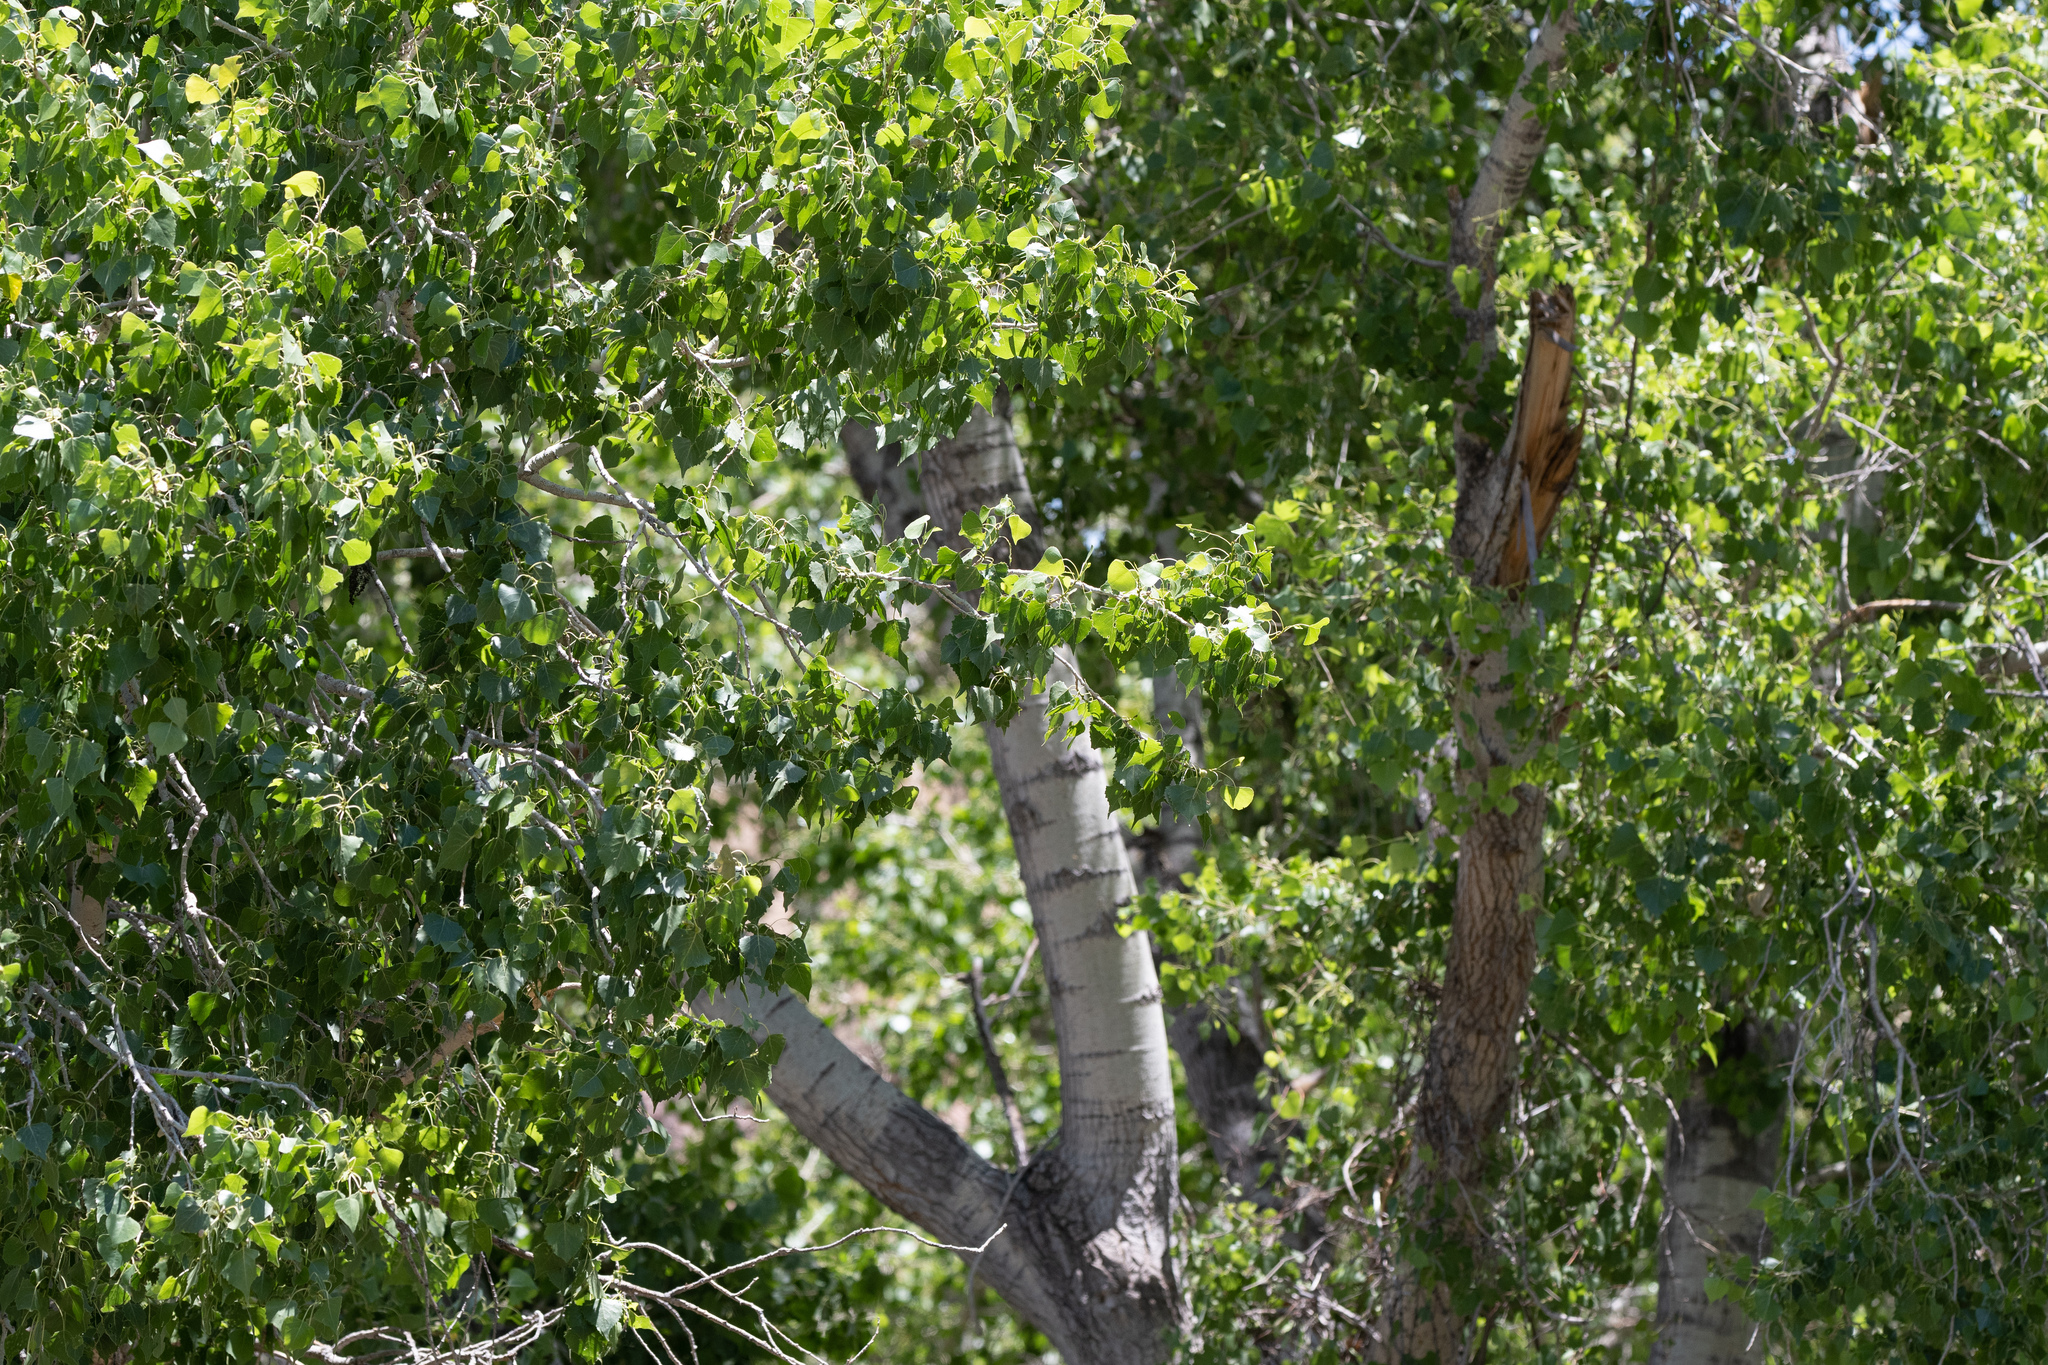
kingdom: Plantae
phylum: Tracheophyta
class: Magnoliopsida
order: Malpighiales
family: Salicaceae
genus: Populus
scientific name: Populus fremontii
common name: Fremont's cottonwood
